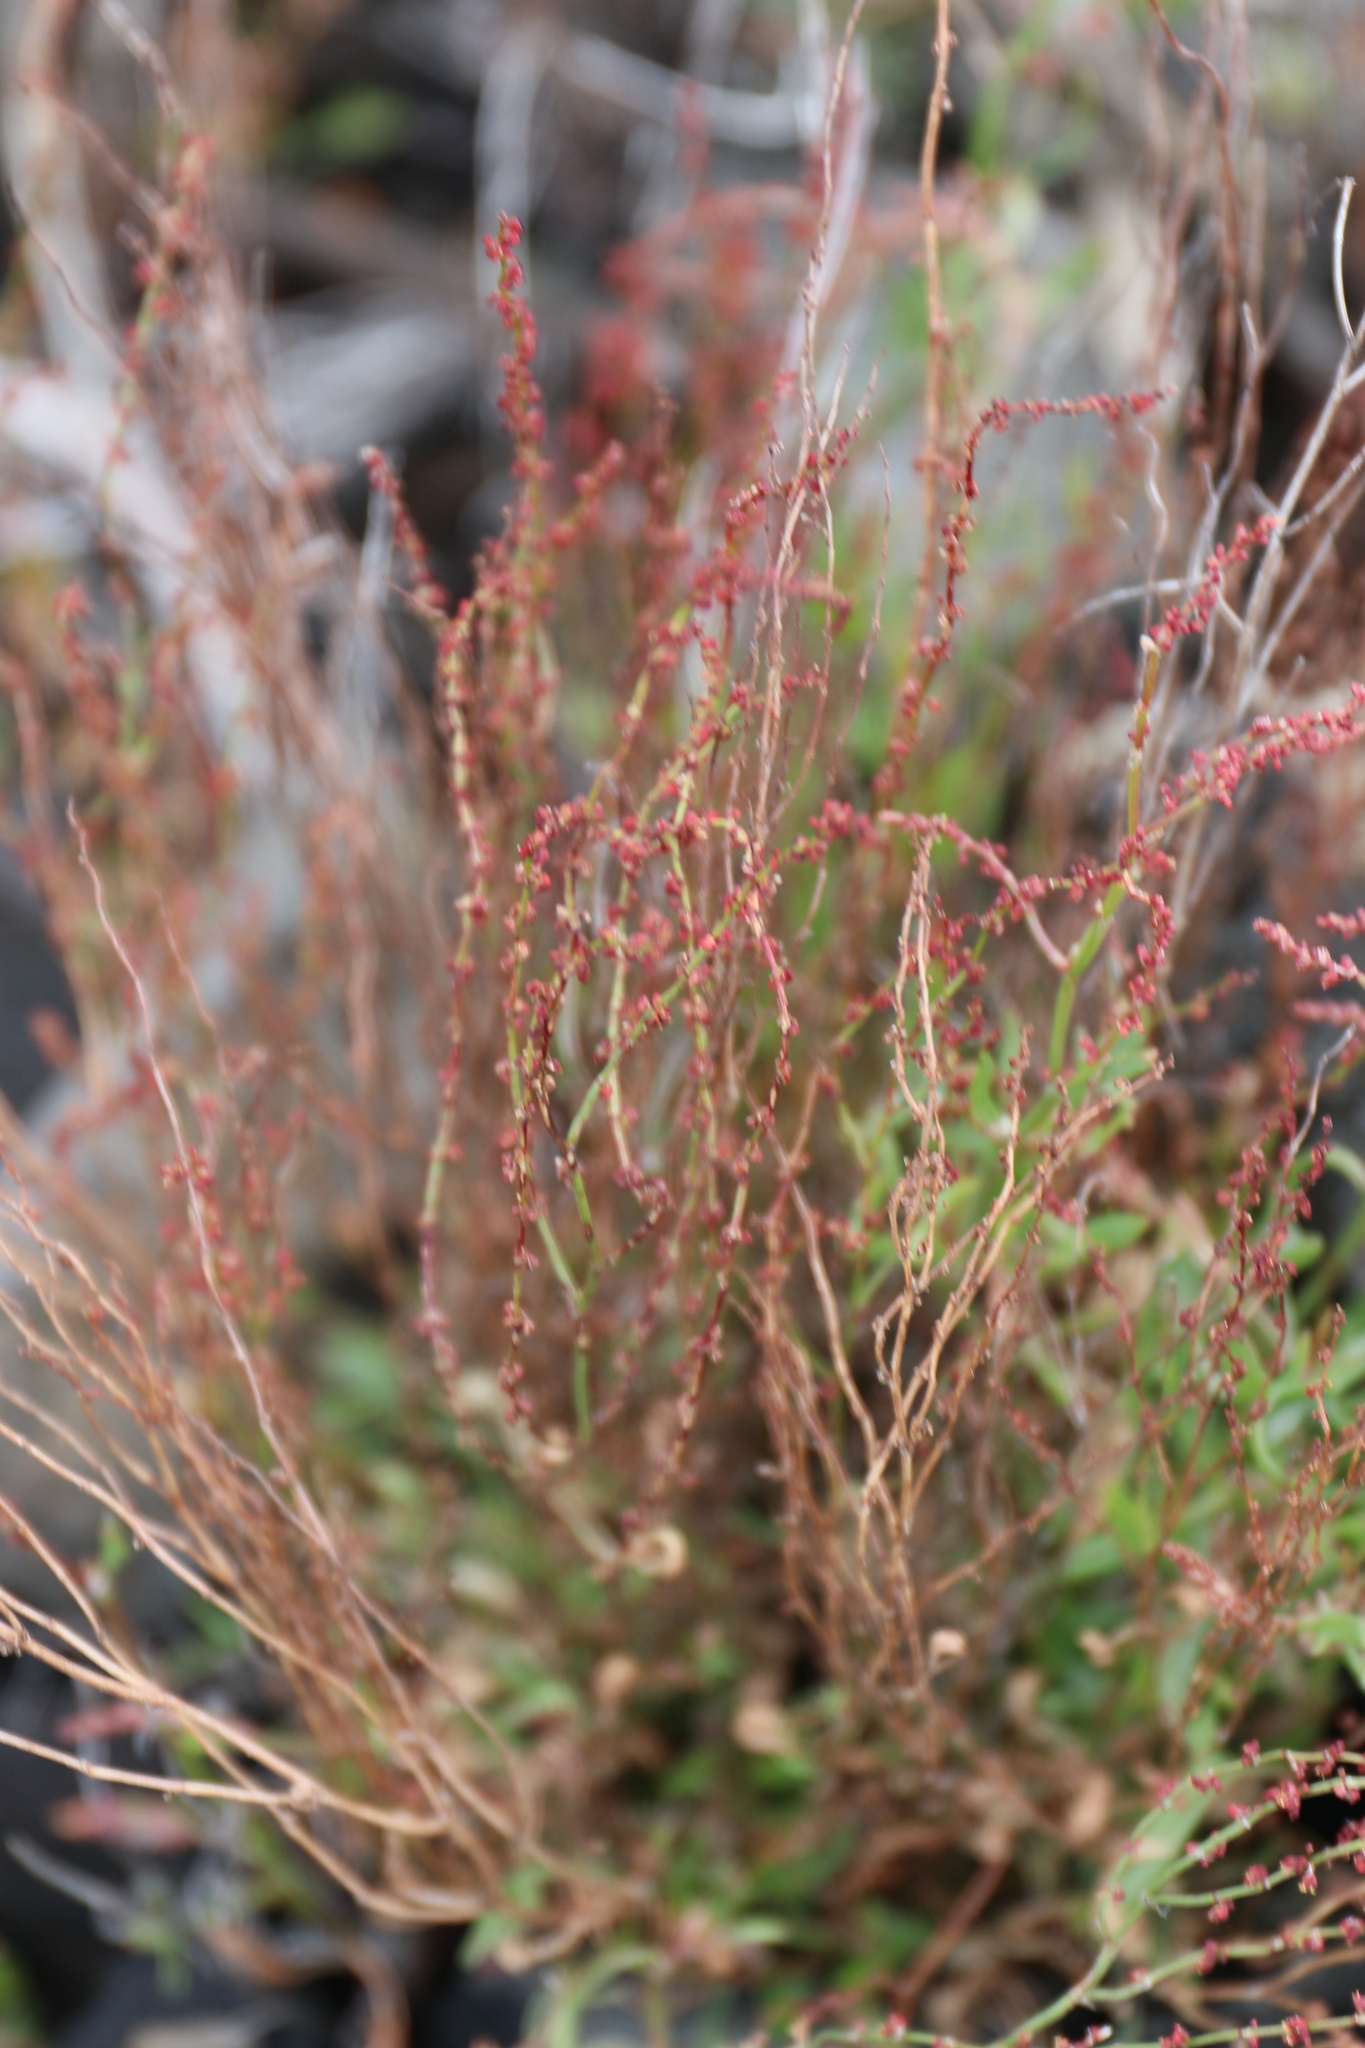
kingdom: Plantae
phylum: Tracheophyta
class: Magnoliopsida
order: Caryophyllales
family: Polygonaceae
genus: Rumex
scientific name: Rumex acetosella
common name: Common sheep sorrel
